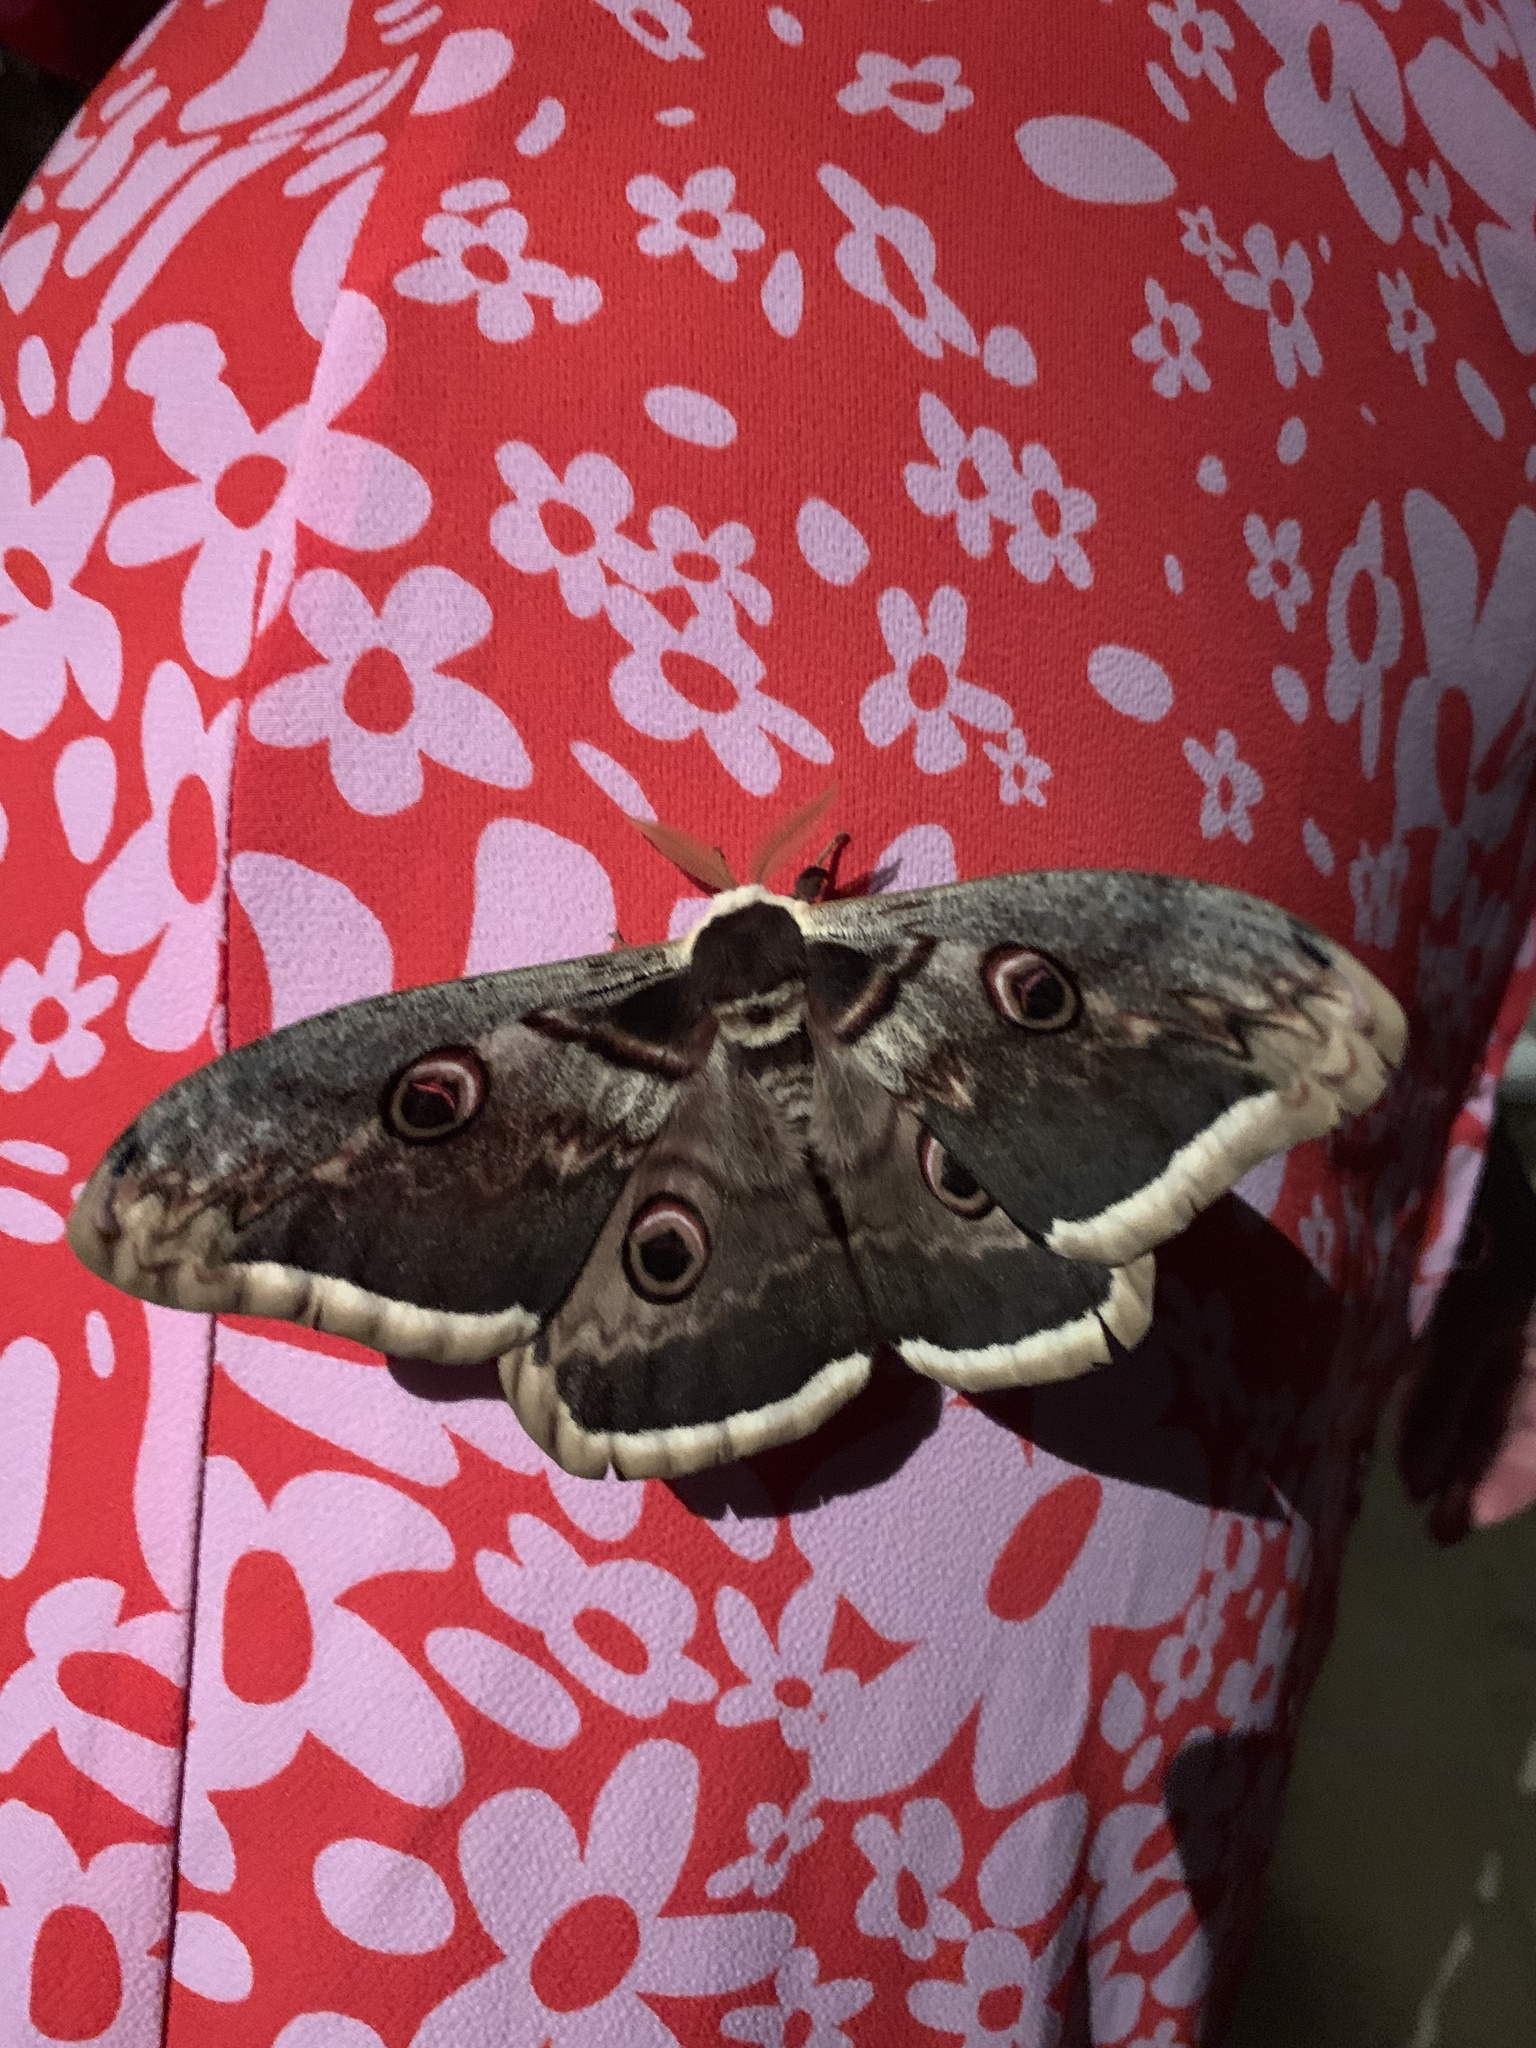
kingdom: Animalia
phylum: Arthropoda
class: Insecta
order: Lepidoptera
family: Saturniidae
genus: Saturnia
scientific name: Saturnia pyri
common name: Great peacock moth
